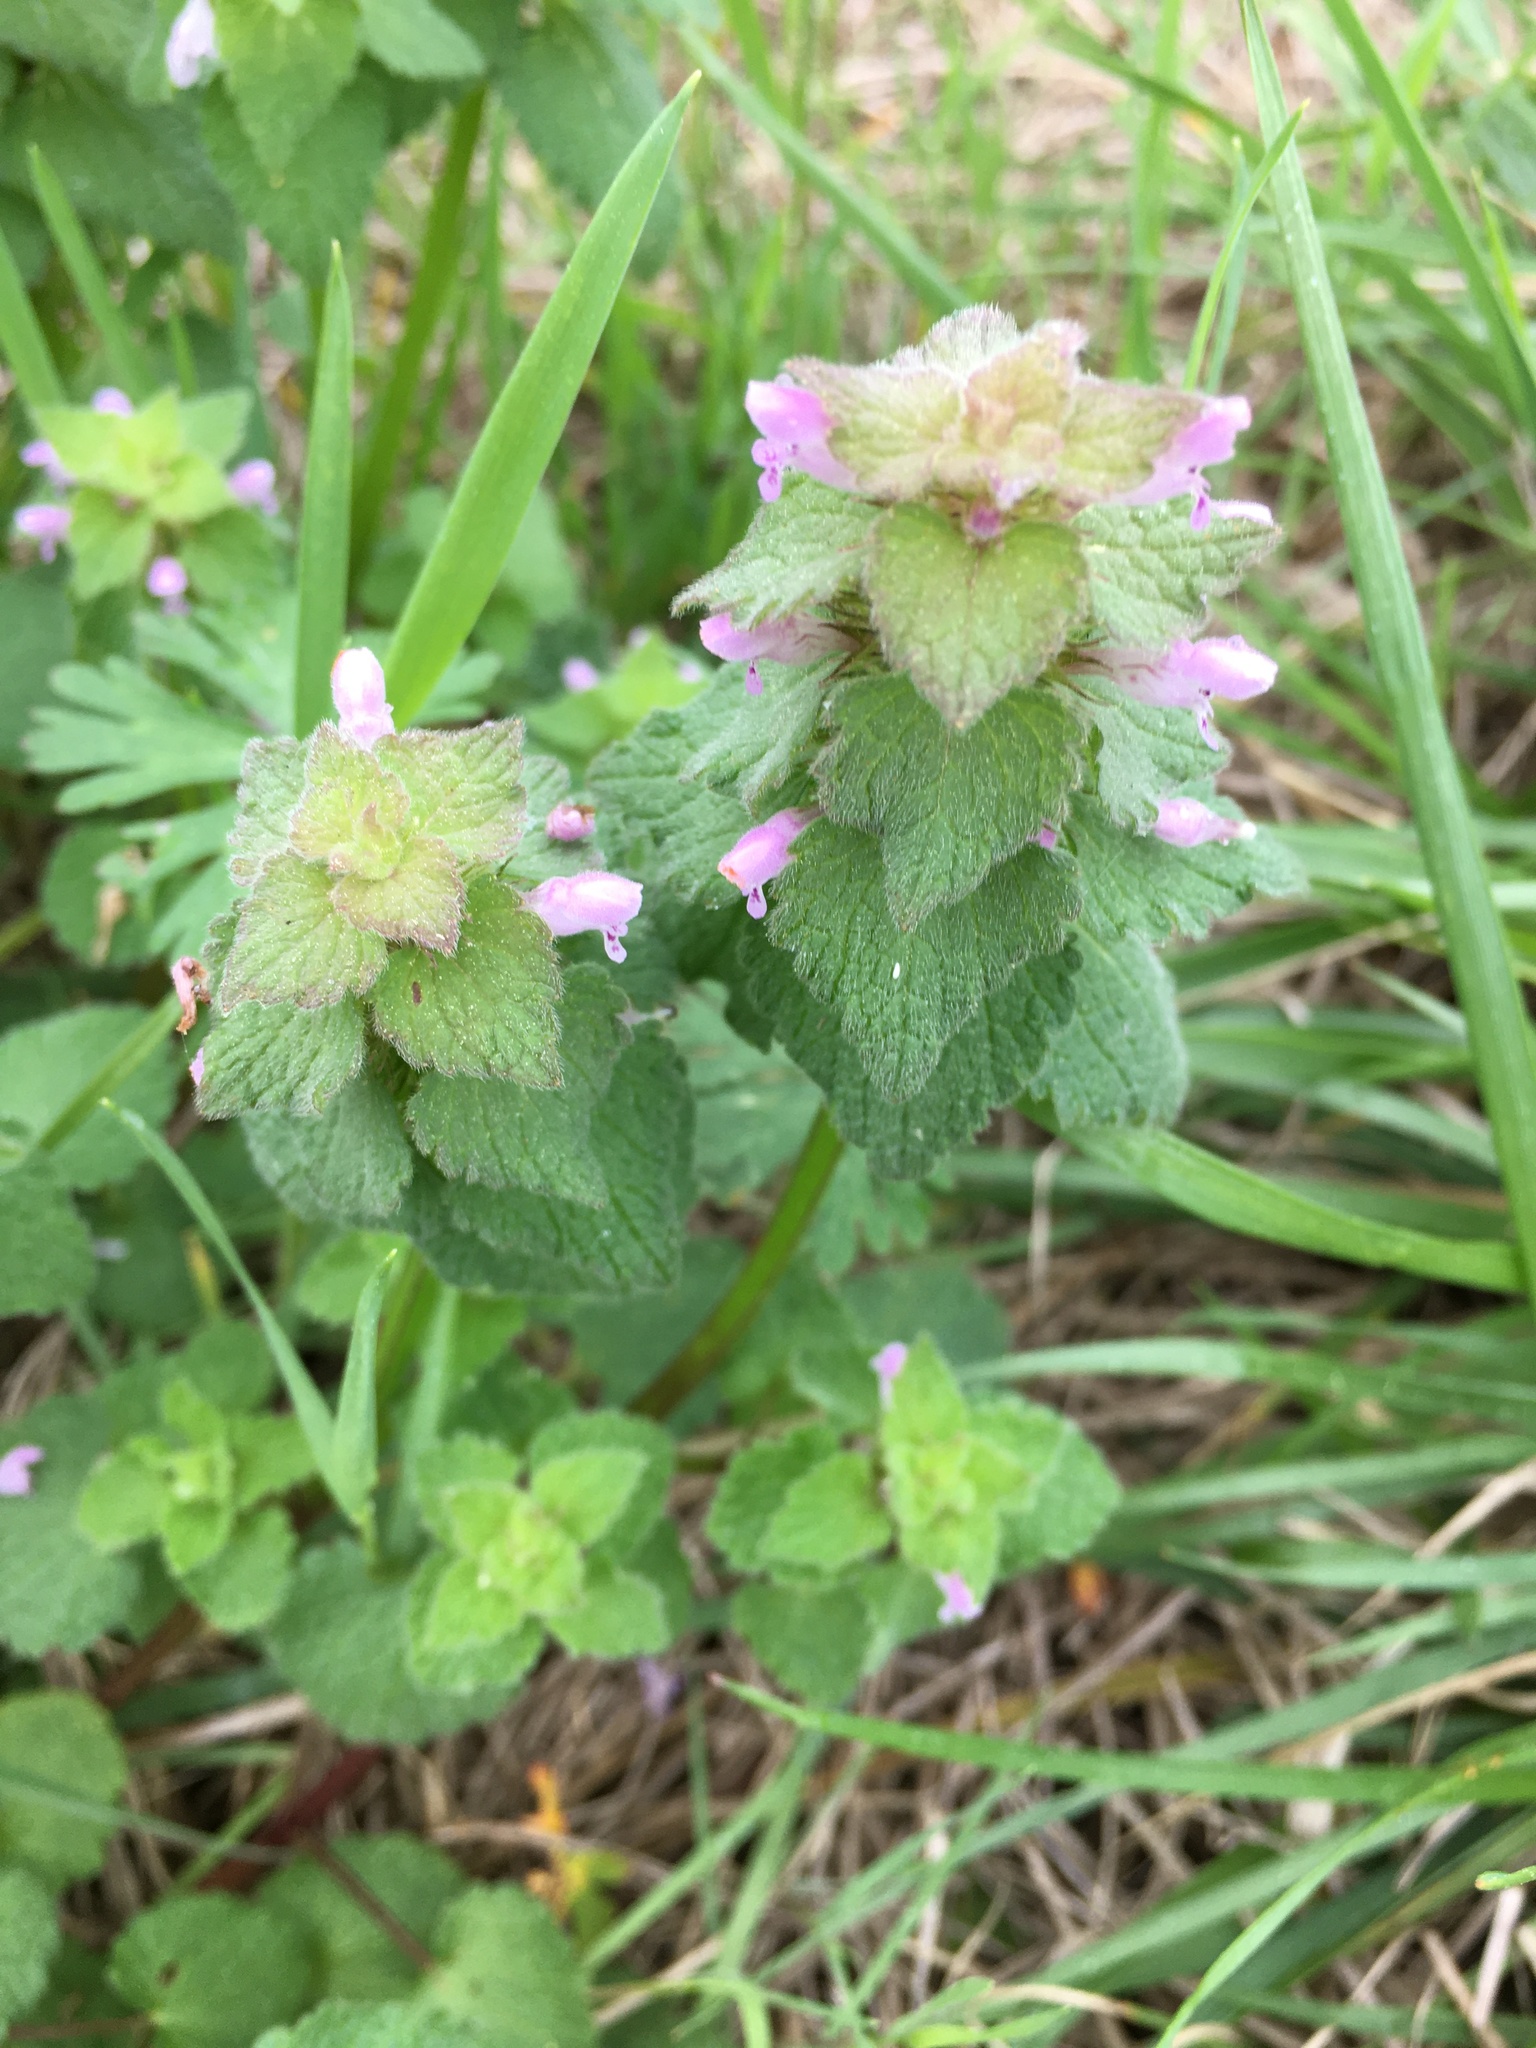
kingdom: Plantae
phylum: Tracheophyta
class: Magnoliopsida
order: Lamiales
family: Lamiaceae
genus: Lamium
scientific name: Lamium purpureum
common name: Red dead-nettle
